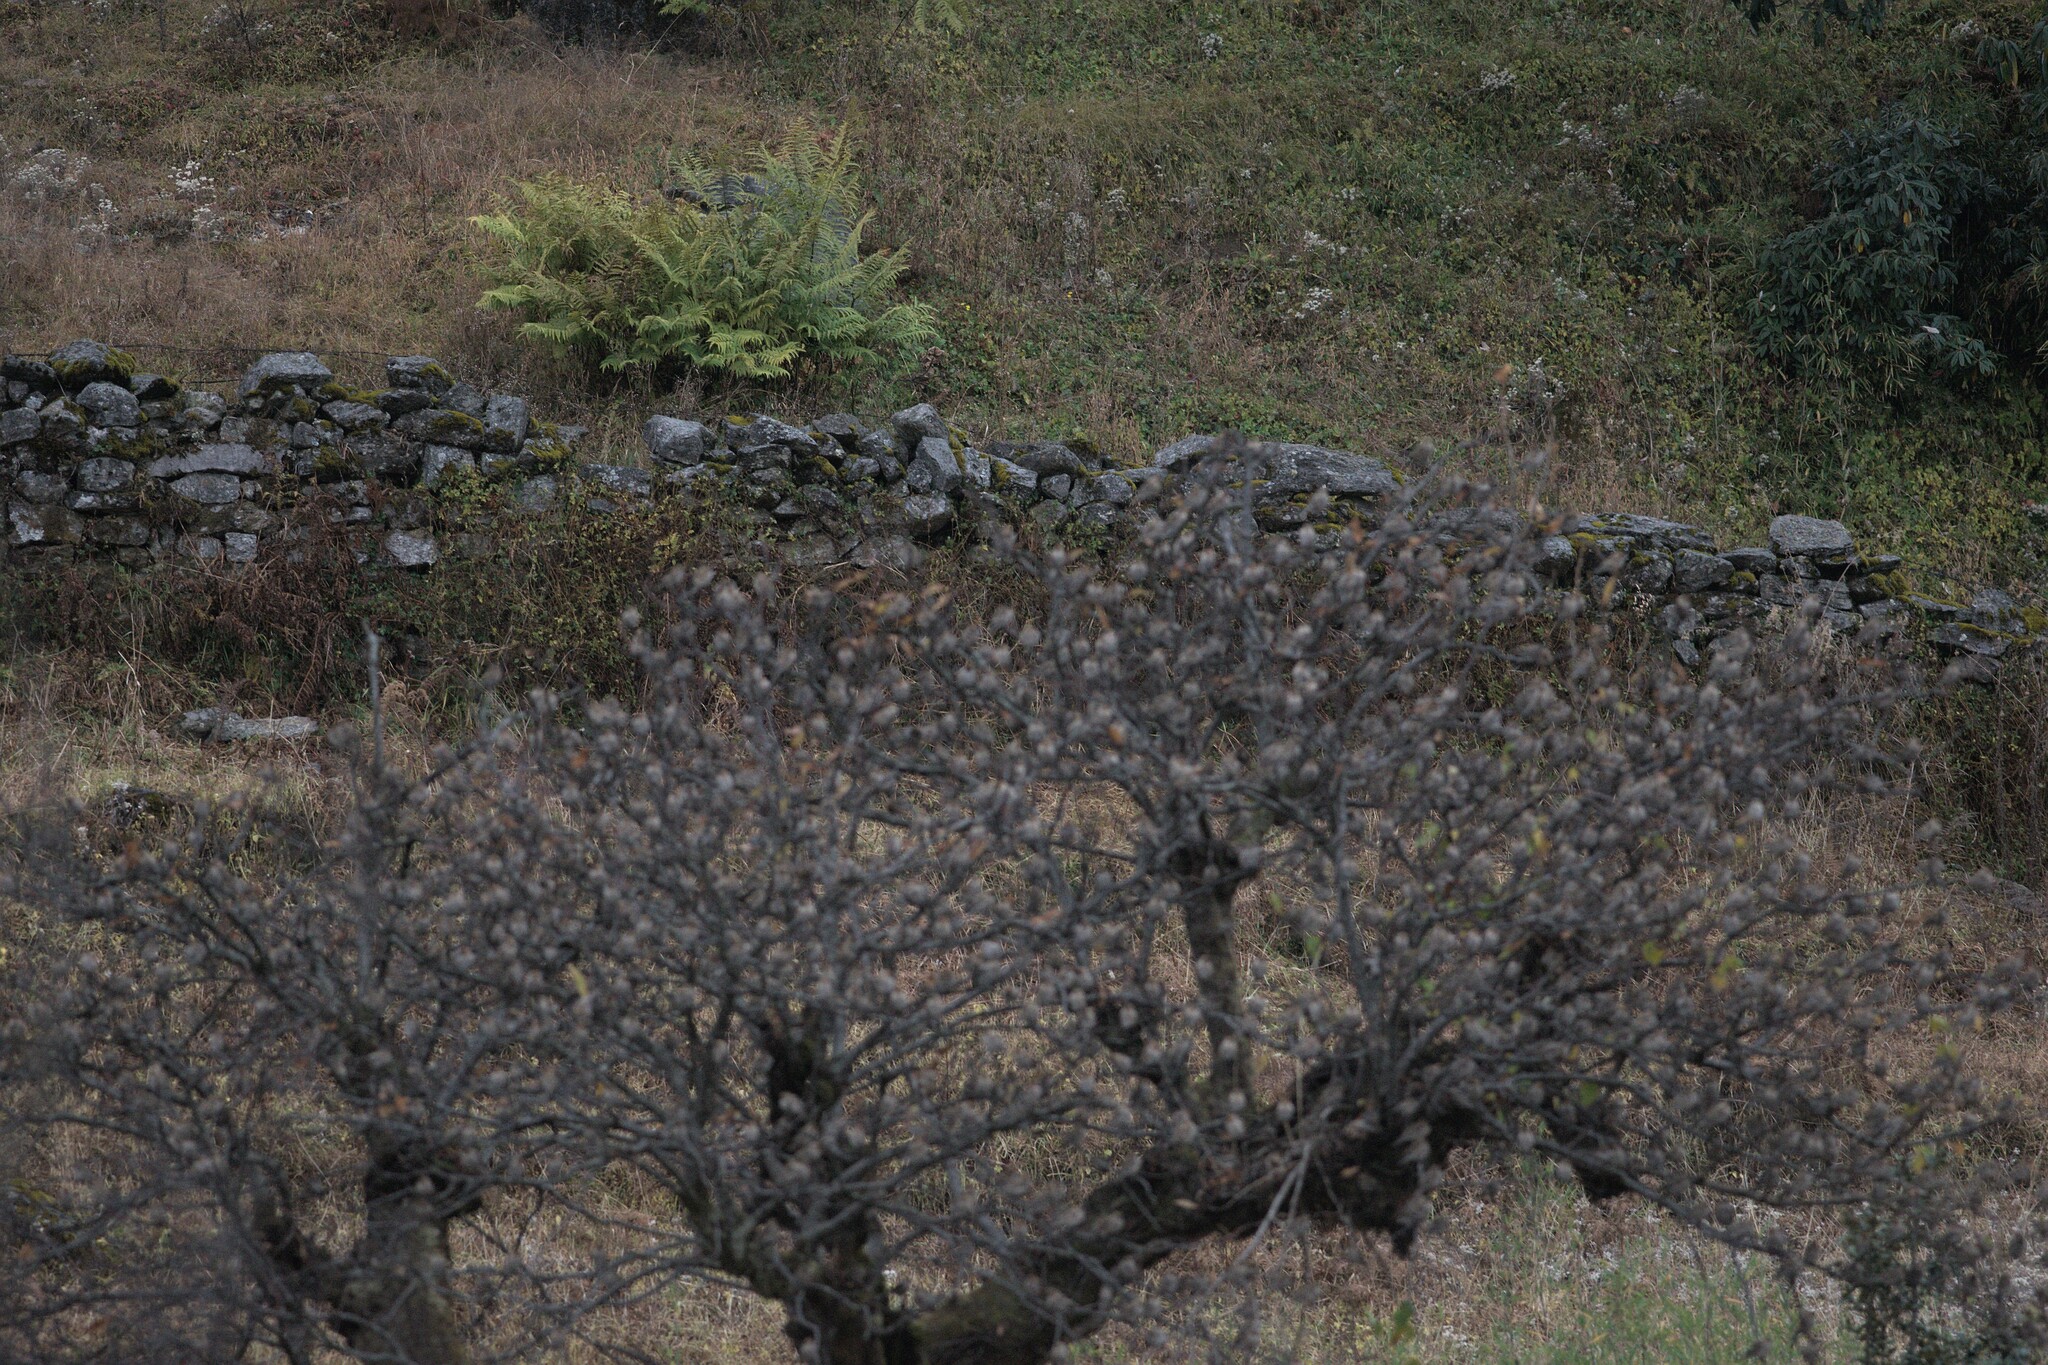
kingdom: Animalia
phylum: Chordata
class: Aves
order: Passeriformes
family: Fringillidae
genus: Leucosticte
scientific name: Leucosticte nemoricola
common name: Plain mountain finch
